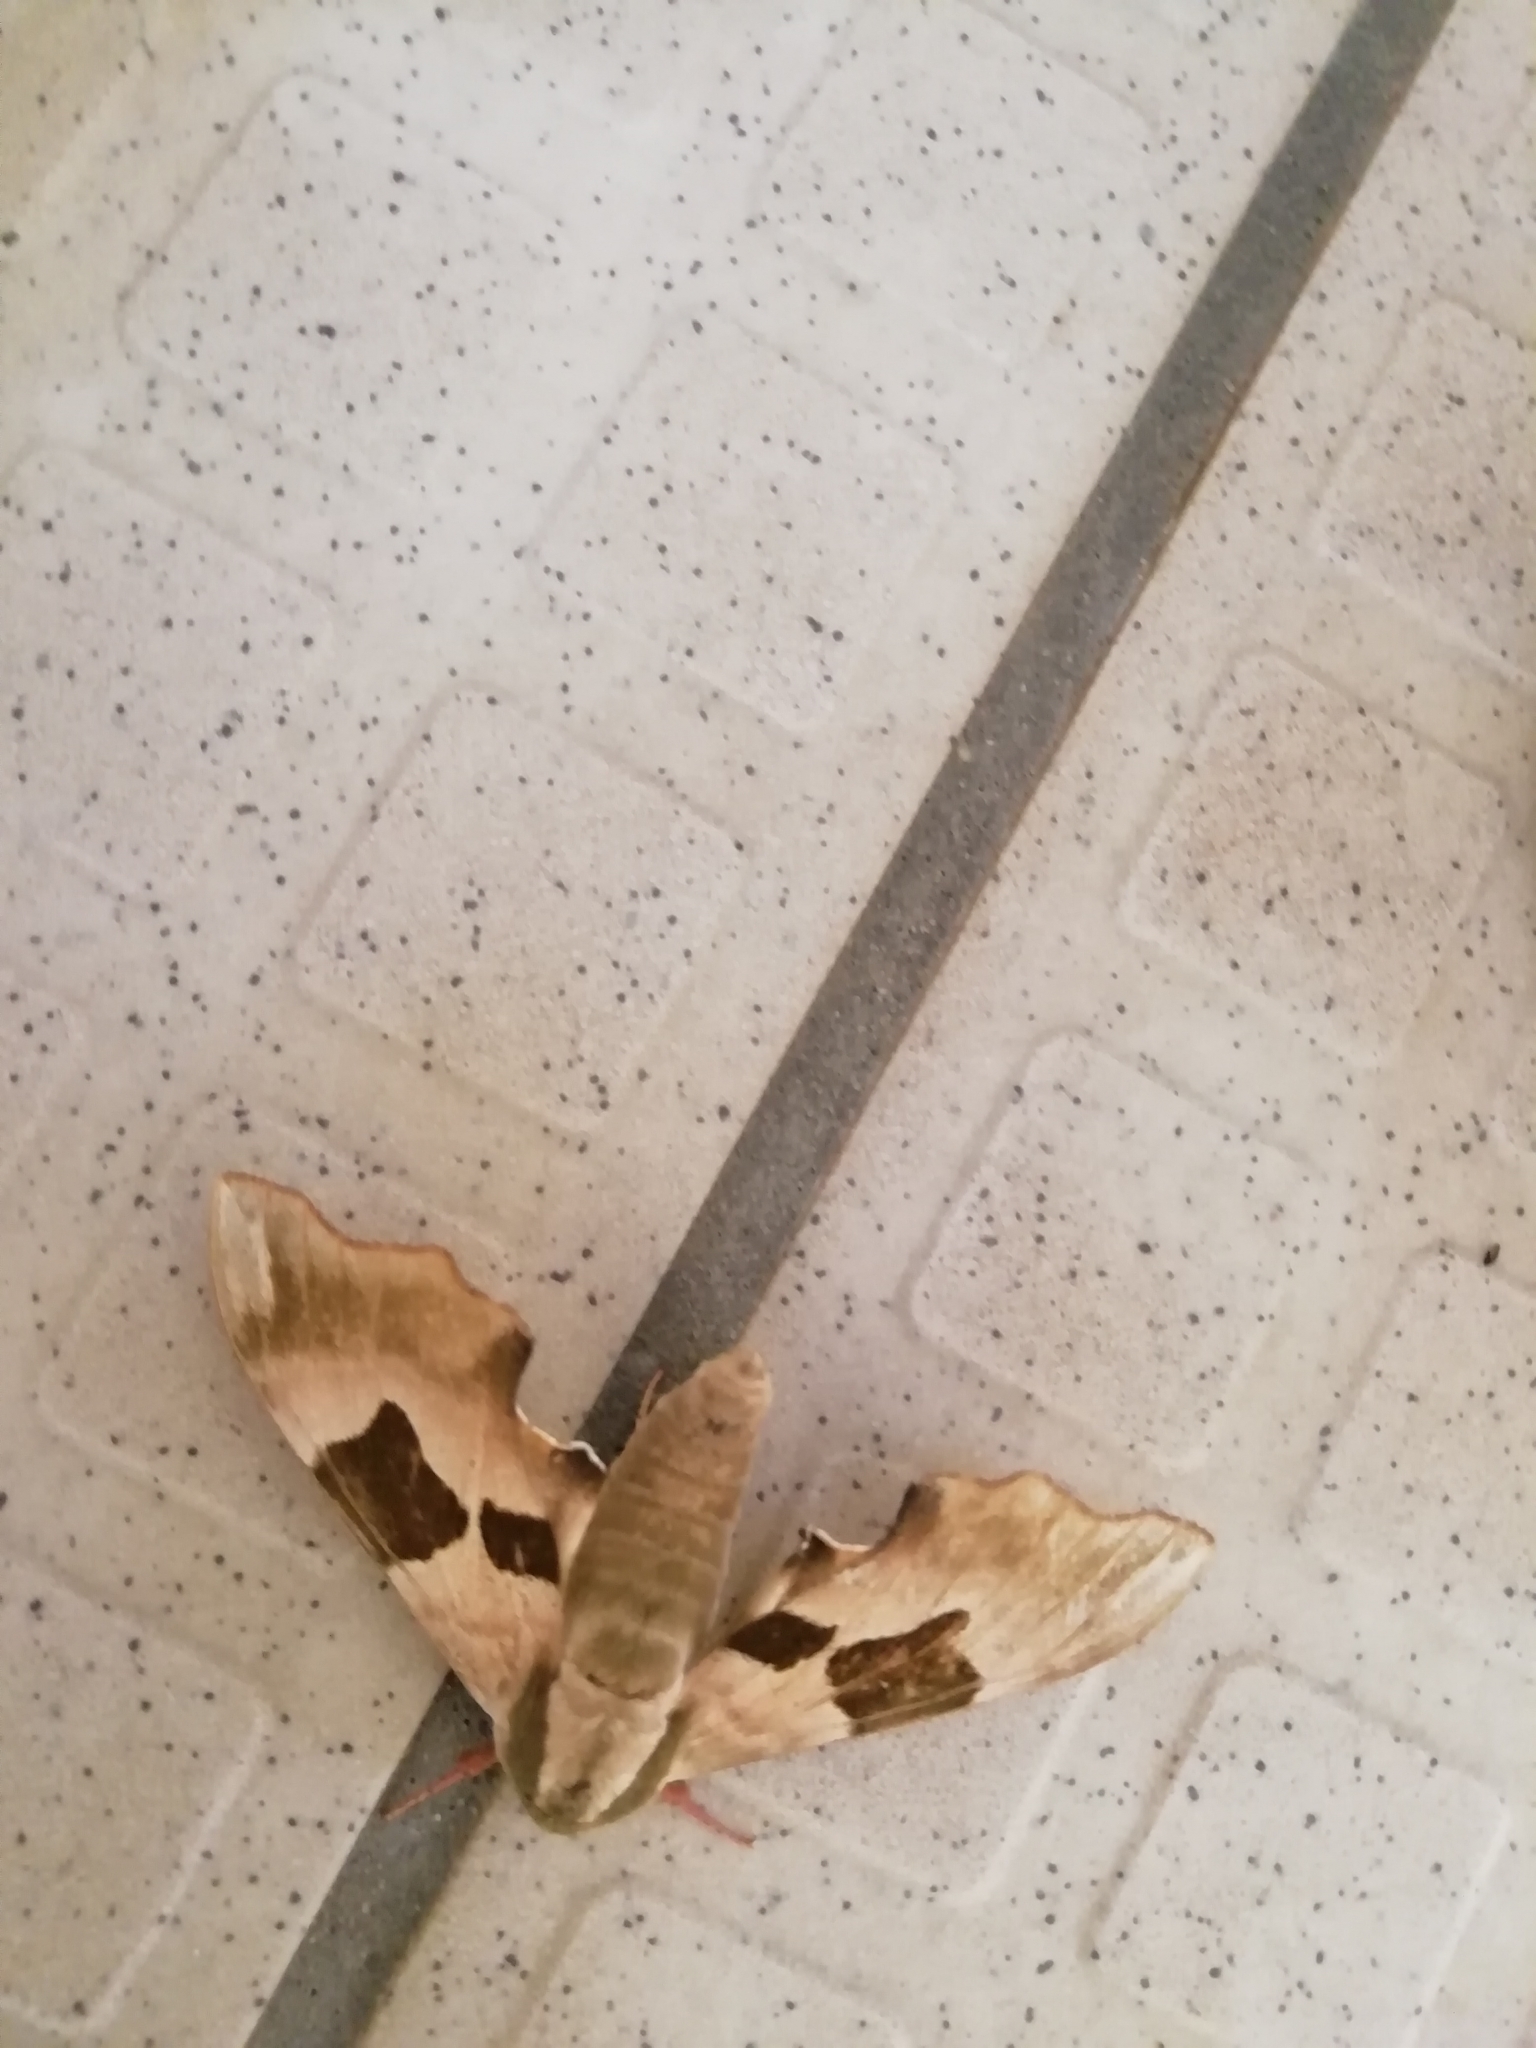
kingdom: Animalia
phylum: Arthropoda
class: Insecta
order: Lepidoptera
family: Sphingidae
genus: Mimas
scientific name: Mimas tiliae
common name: Lime hawk-moth
